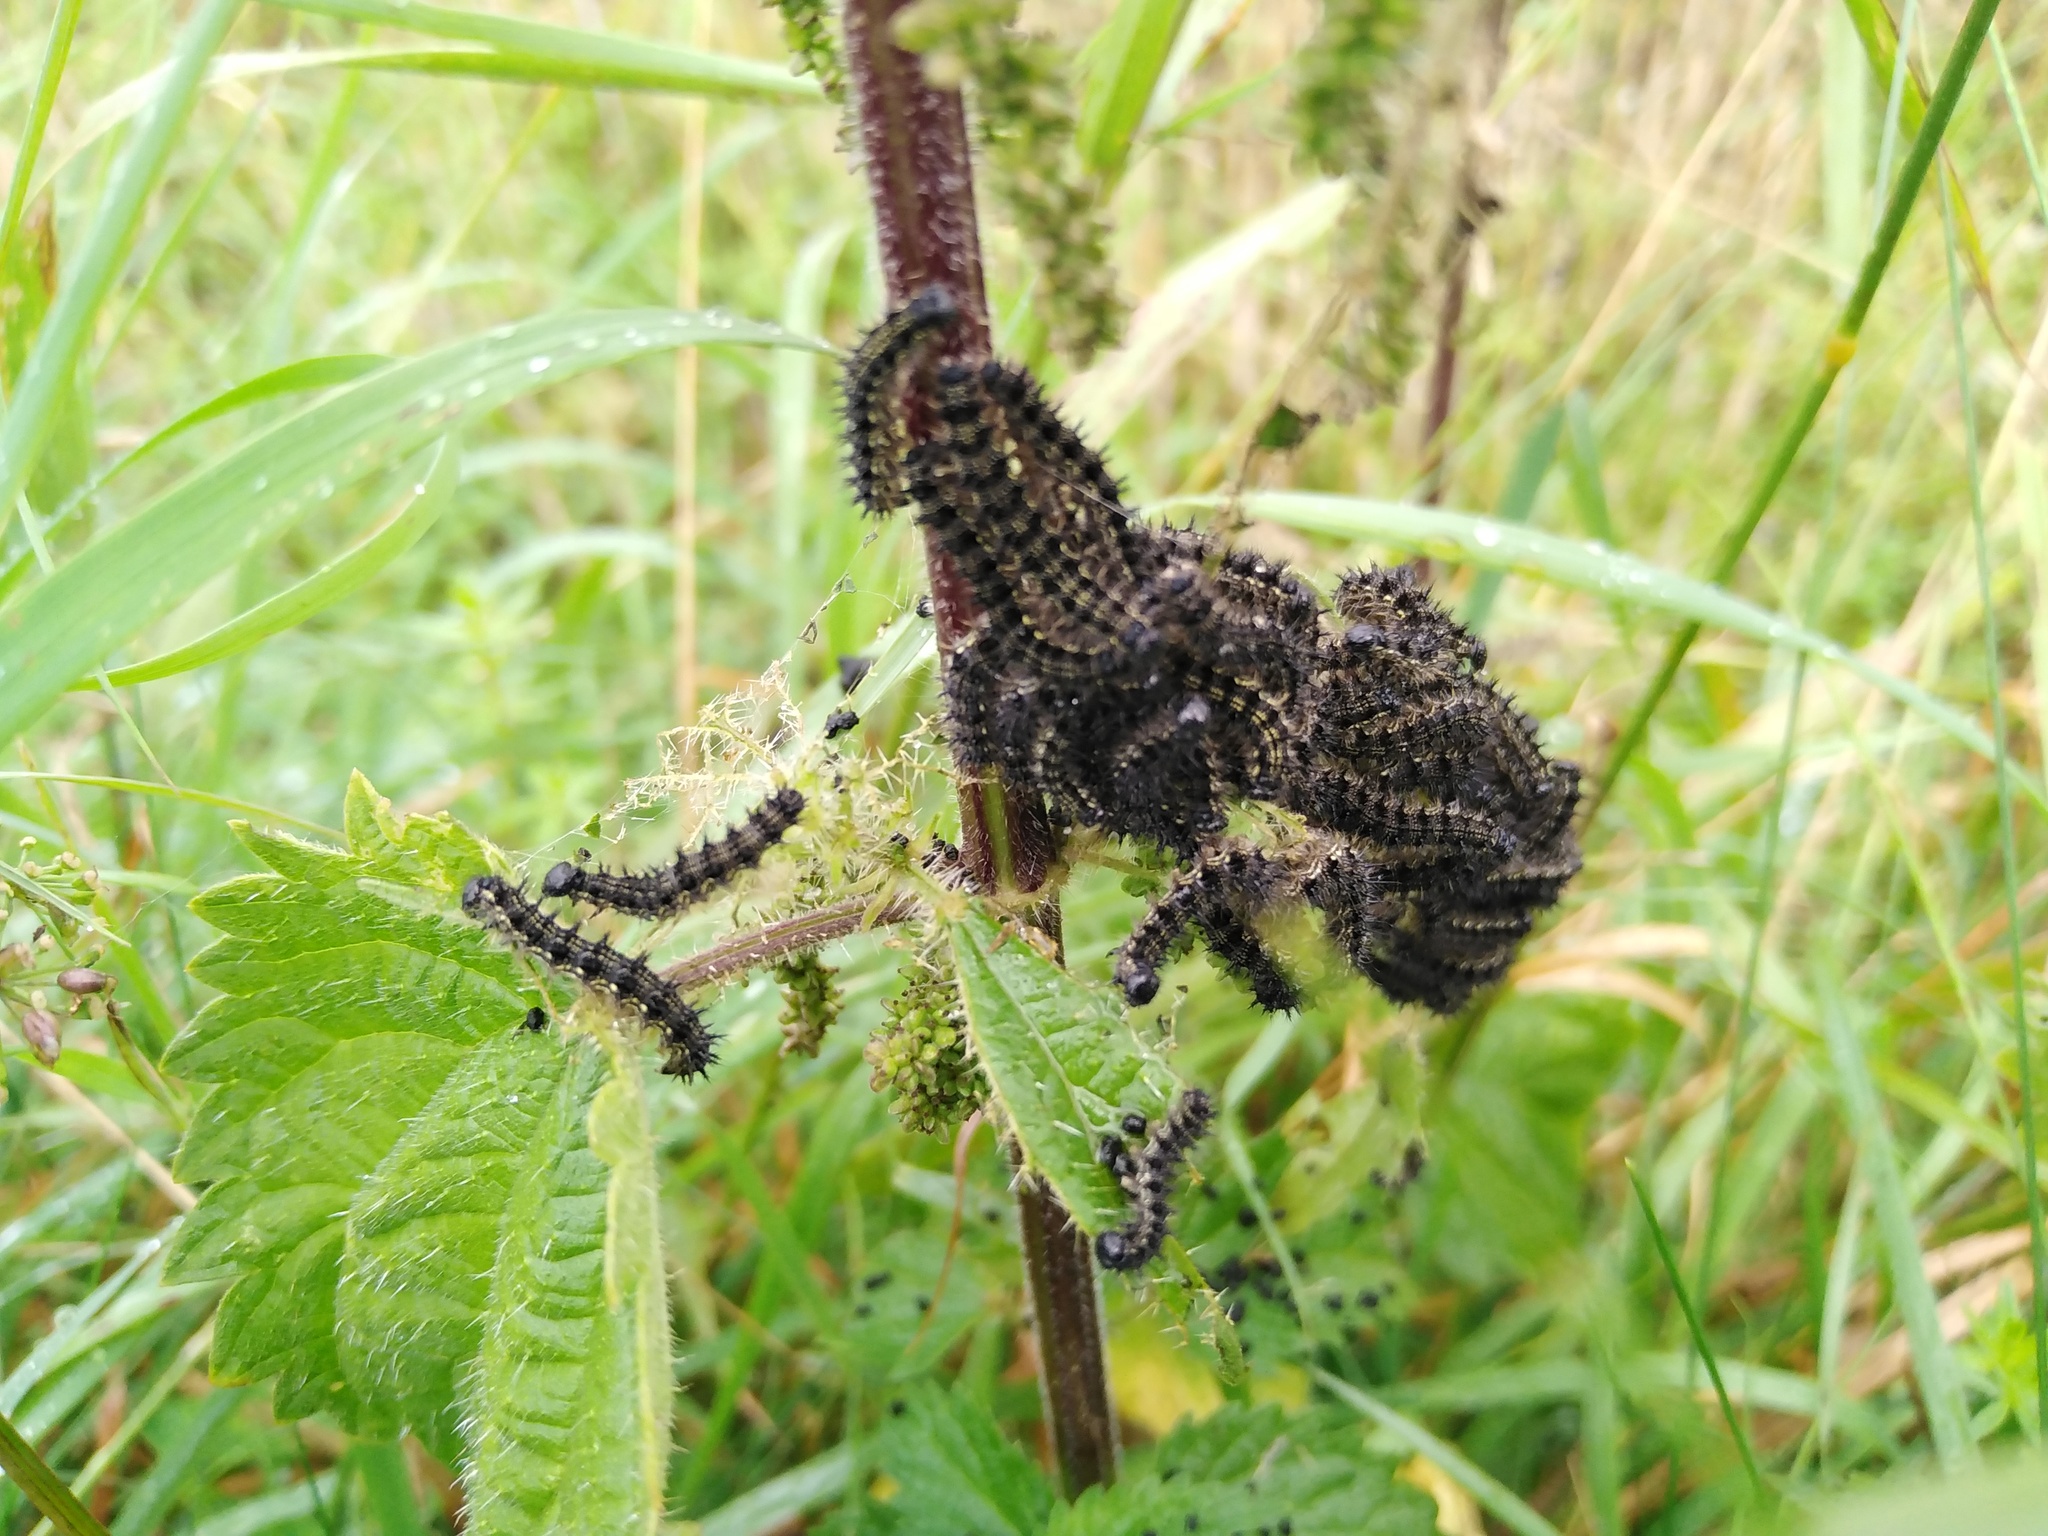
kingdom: Animalia
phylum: Arthropoda
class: Insecta
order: Lepidoptera
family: Nymphalidae
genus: Aglais
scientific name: Aglais urticae
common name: Small tortoiseshell
